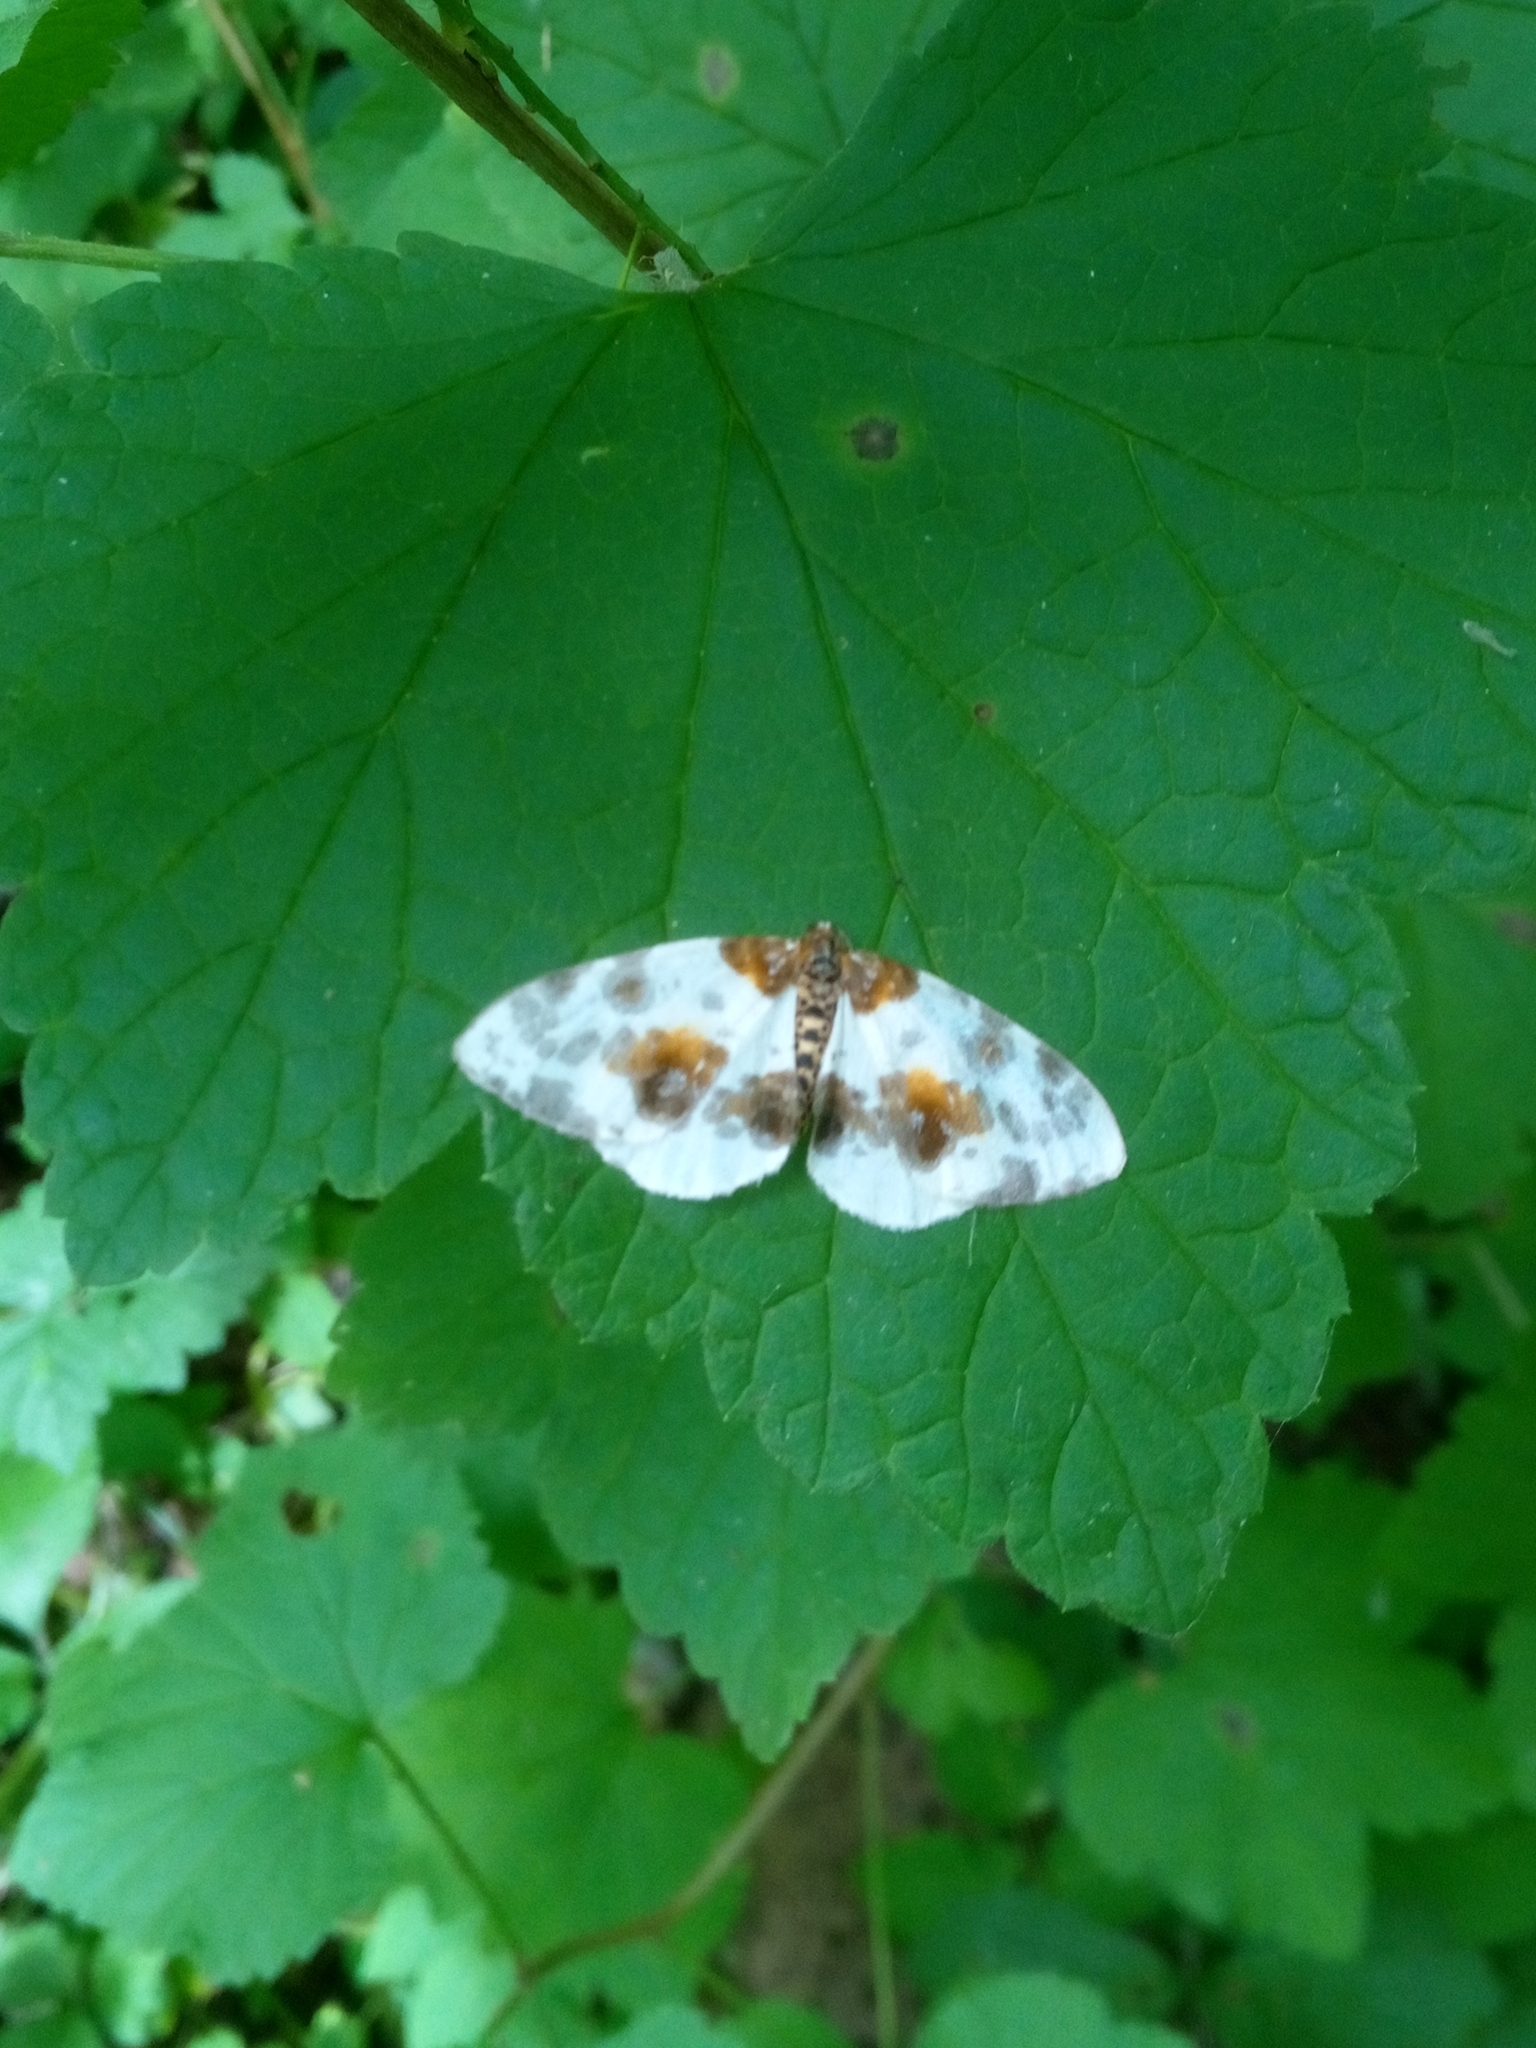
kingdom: Animalia
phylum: Arthropoda
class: Insecta
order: Lepidoptera
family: Geometridae
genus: Abraxas
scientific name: Abraxas sylvata
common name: Clouded magpie
